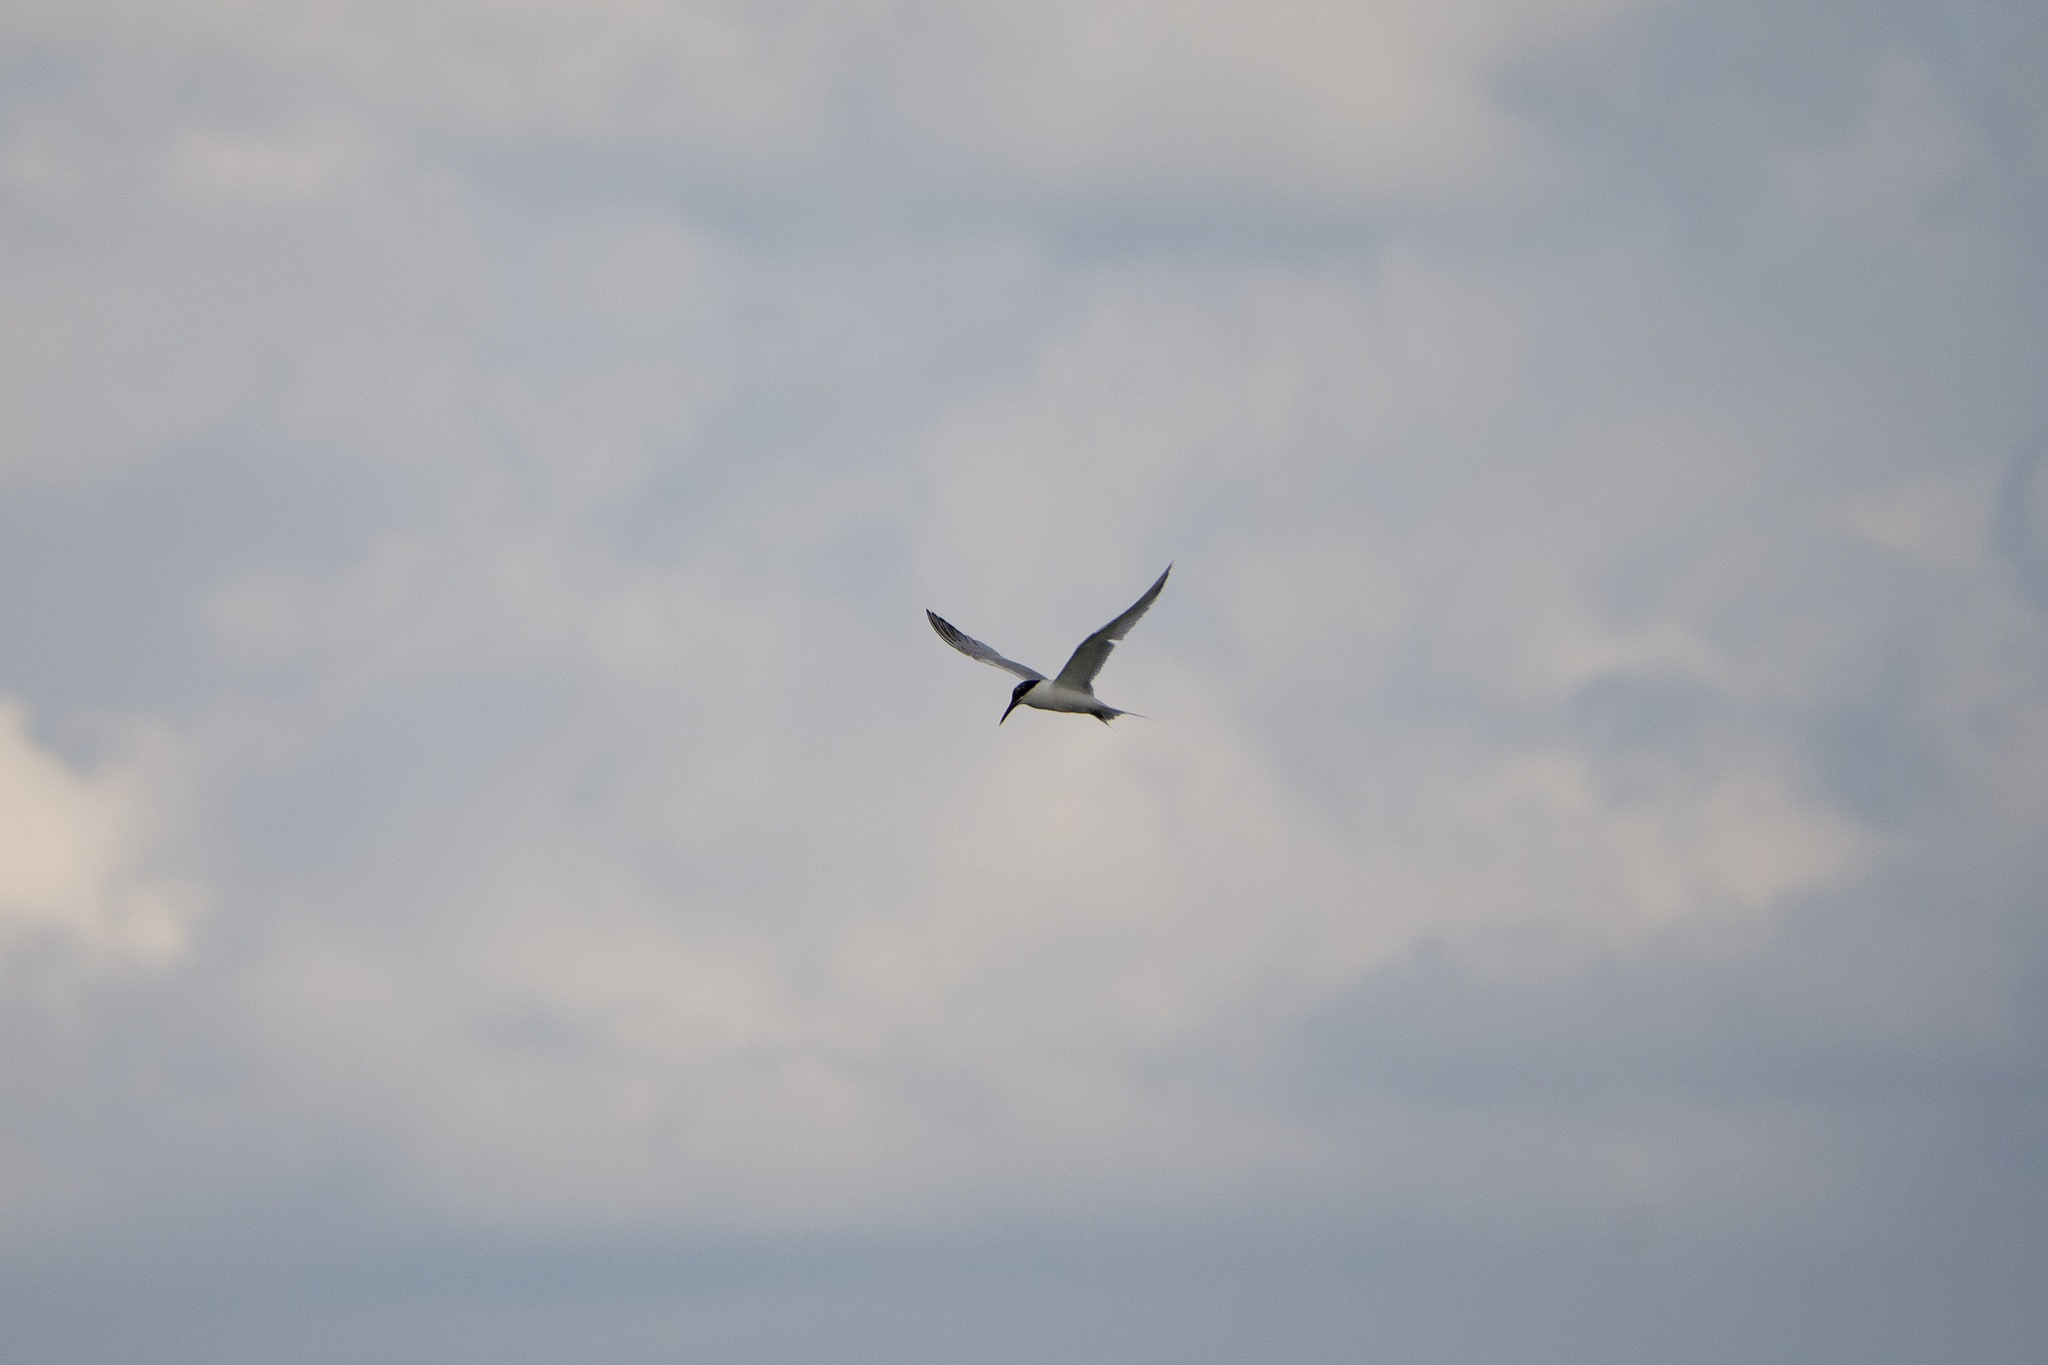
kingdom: Animalia
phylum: Chordata
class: Aves
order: Charadriiformes
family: Laridae
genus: Thalasseus
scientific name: Thalasseus sandvicensis
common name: Sandwich tern
